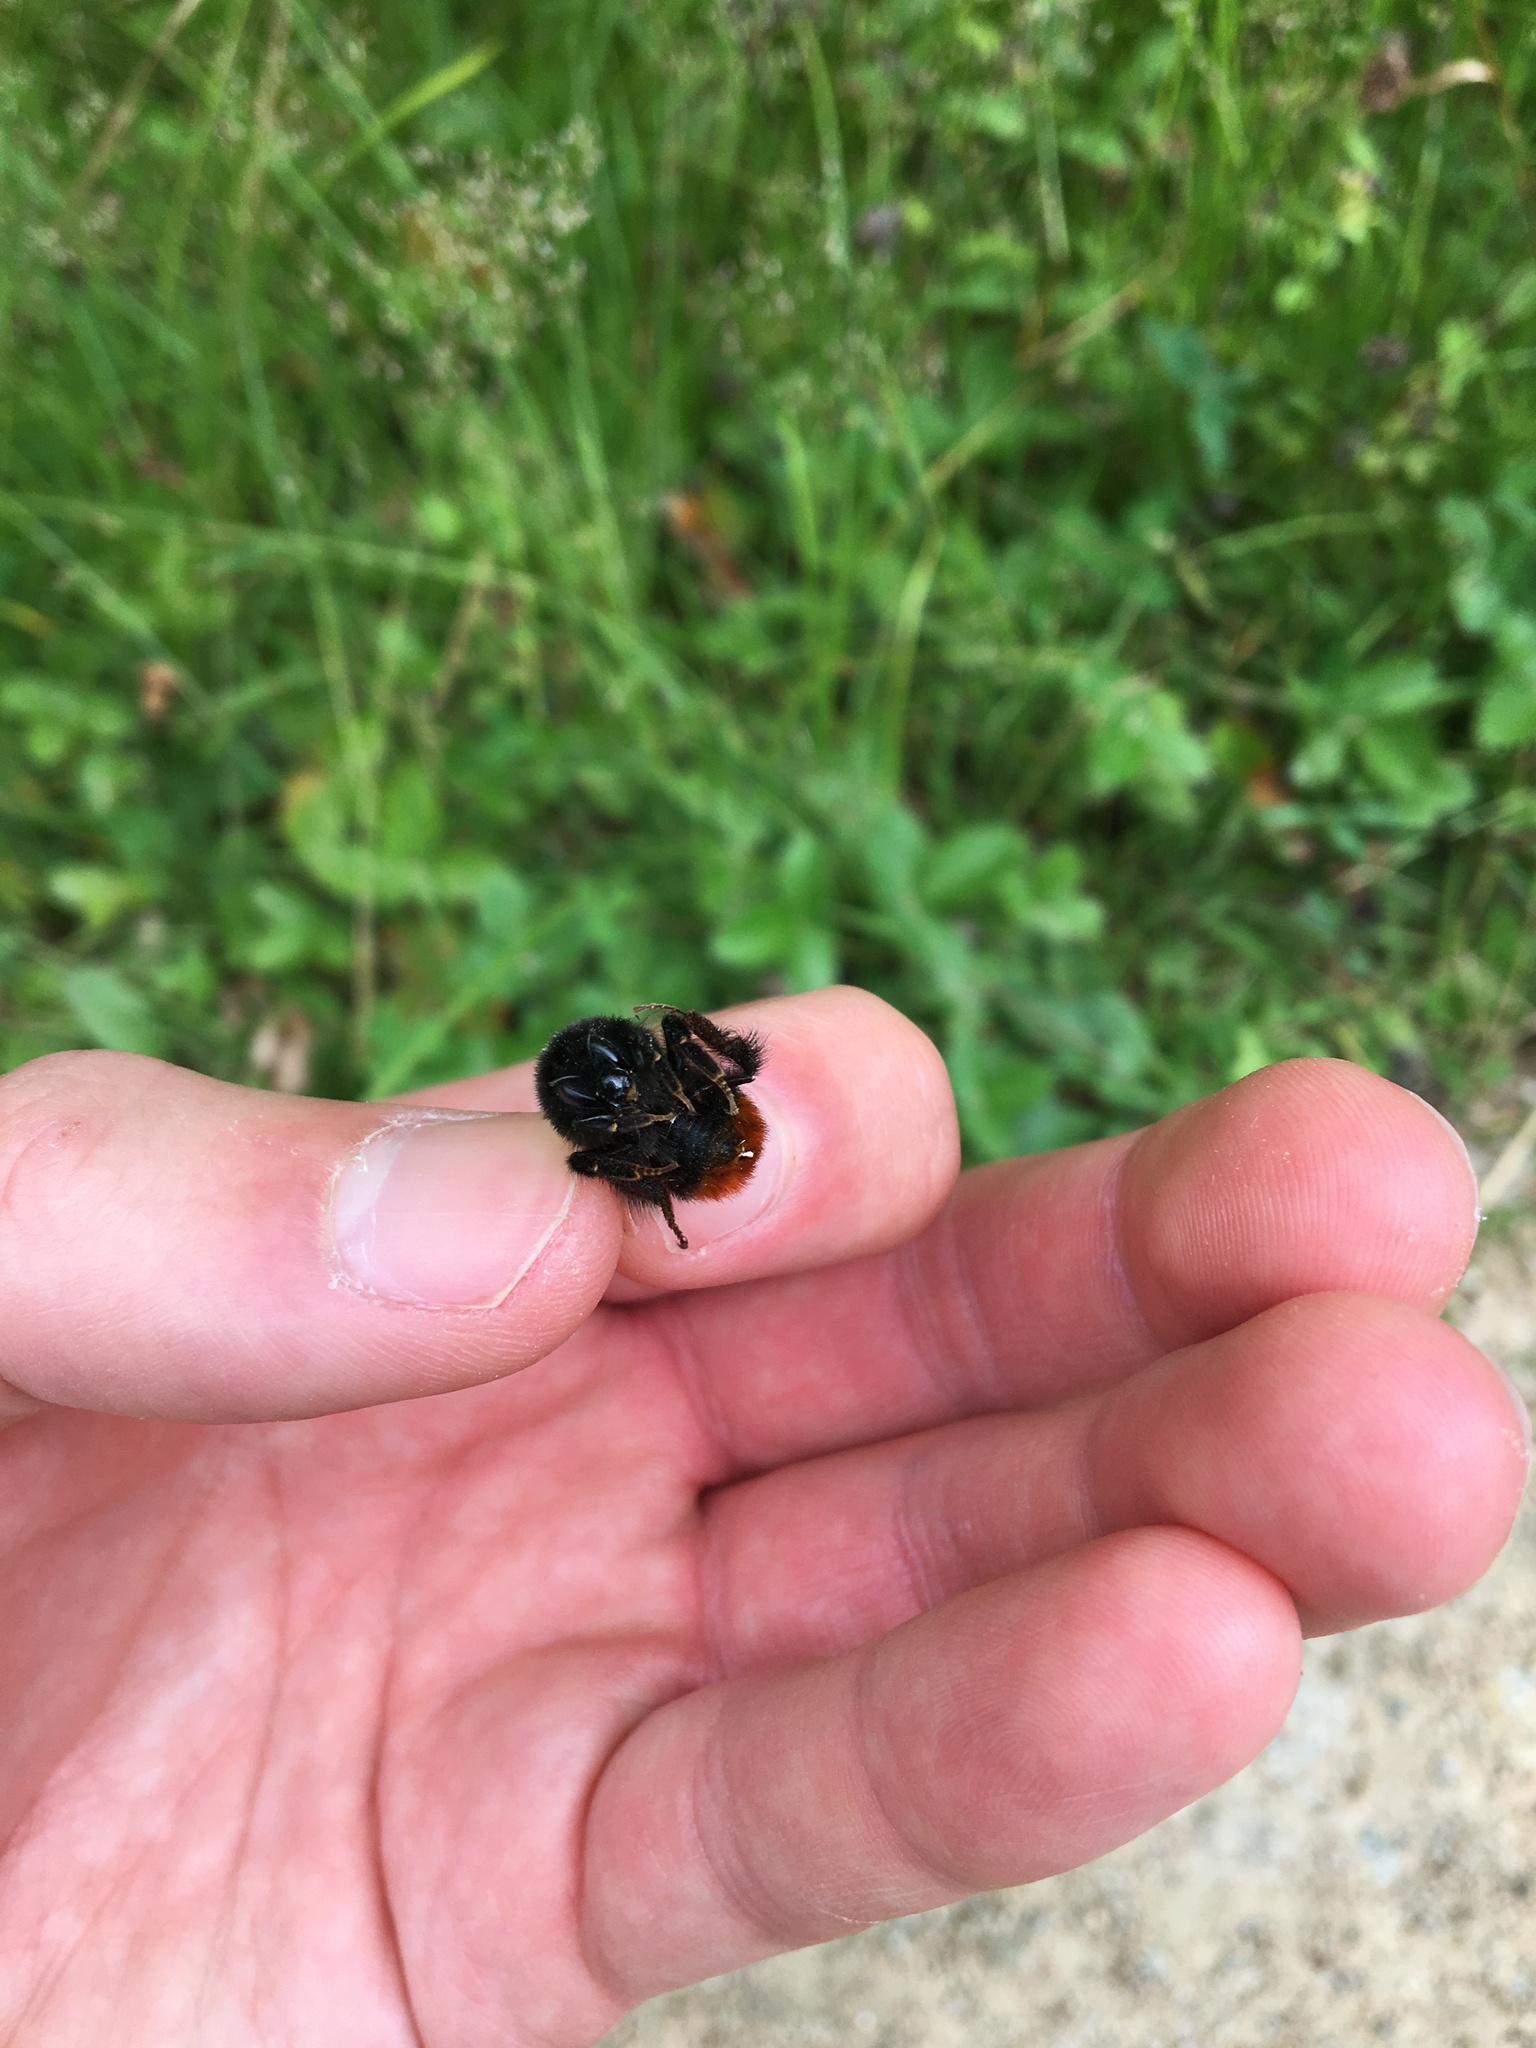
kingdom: Animalia
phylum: Arthropoda
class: Insecta
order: Hymenoptera
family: Apidae
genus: Bombus
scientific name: Bombus lapidarius
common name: Large red-tailed humble-bee
